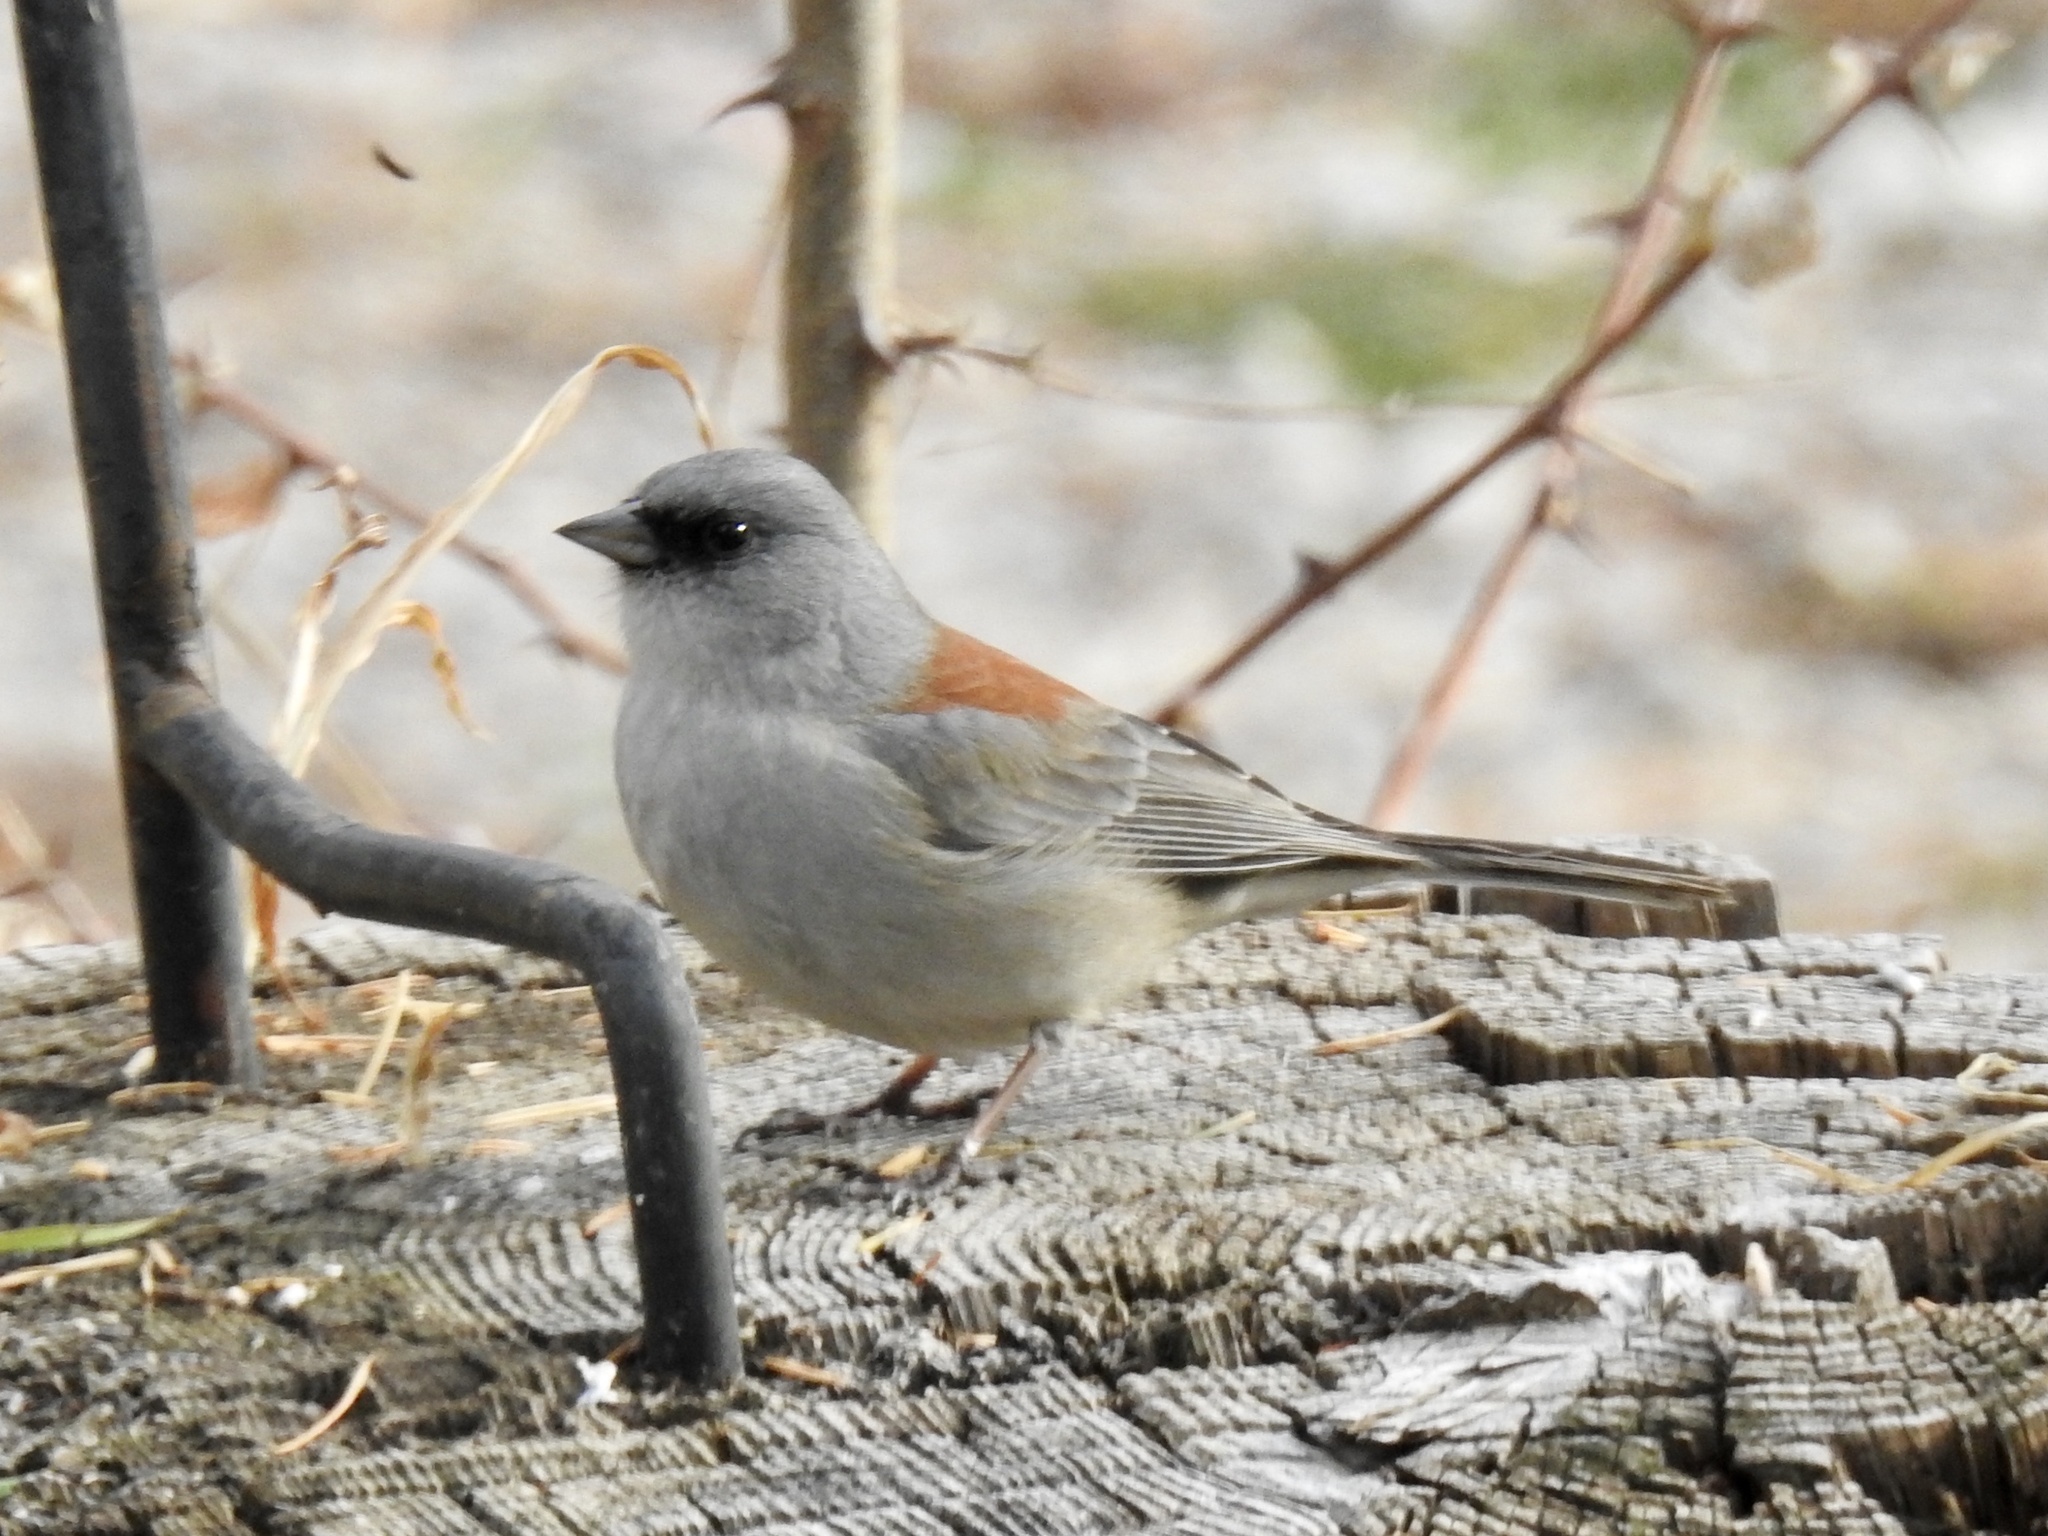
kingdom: Animalia
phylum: Chordata
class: Aves
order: Passeriformes
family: Passerellidae
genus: Junco
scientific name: Junco hyemalis
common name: Dark-eyed junco
